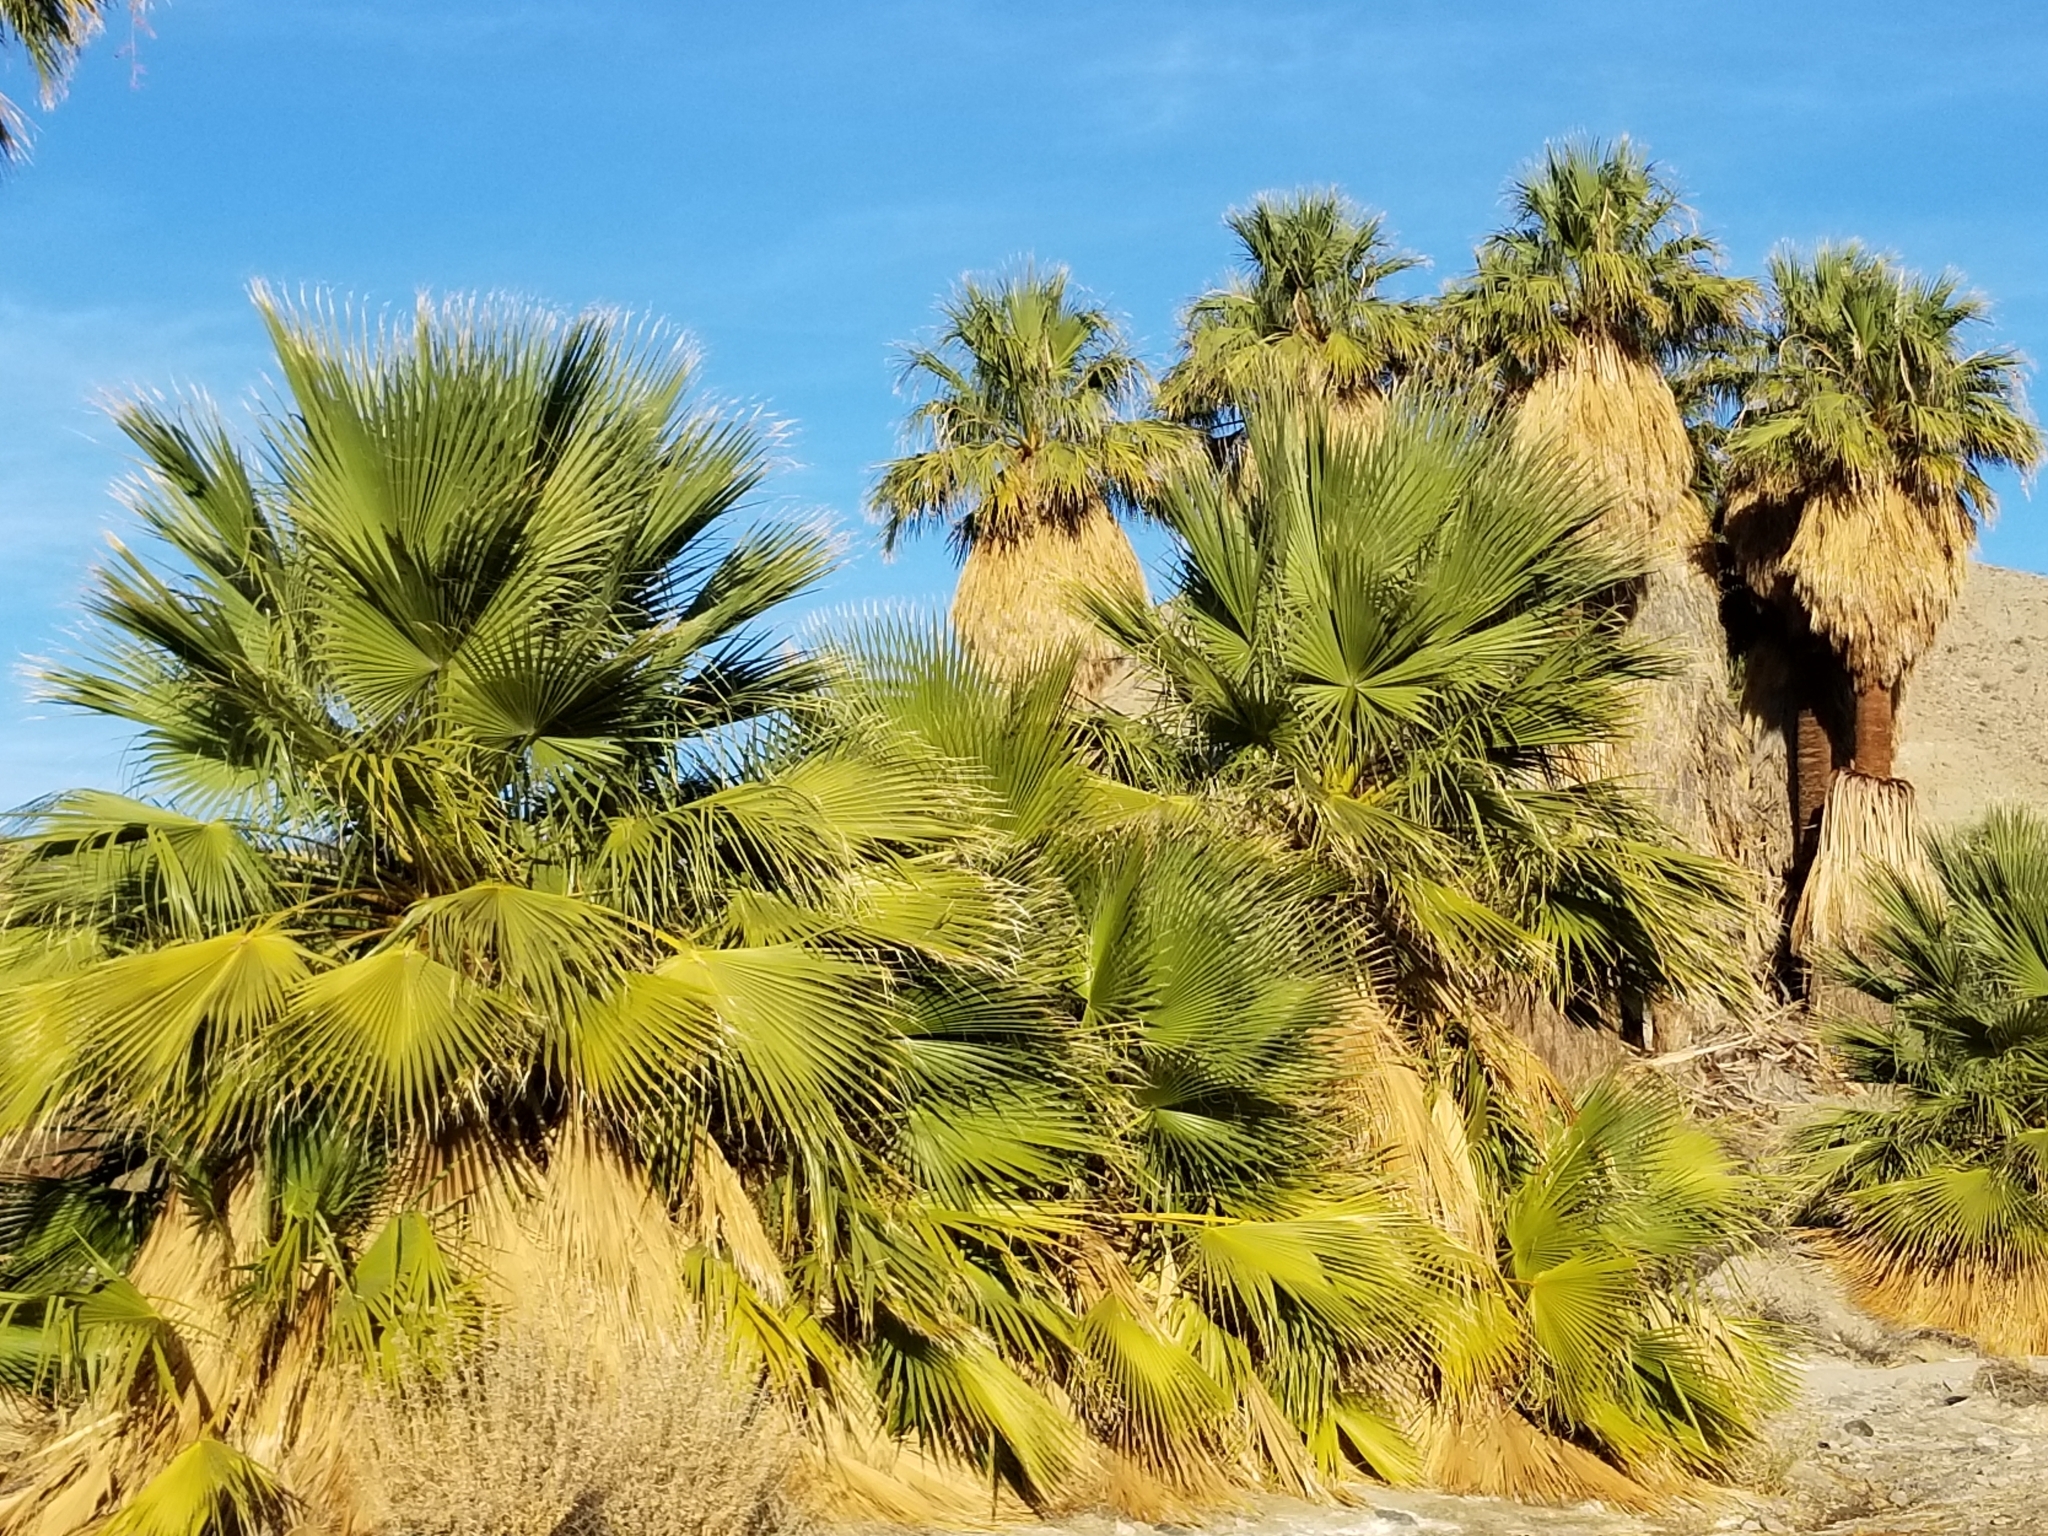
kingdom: Plantae
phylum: Tracheophyta
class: Liliopsida
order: Arecales
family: Arecaceae
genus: Washingtonia
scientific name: Washingtonia filifera
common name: California fan palm
